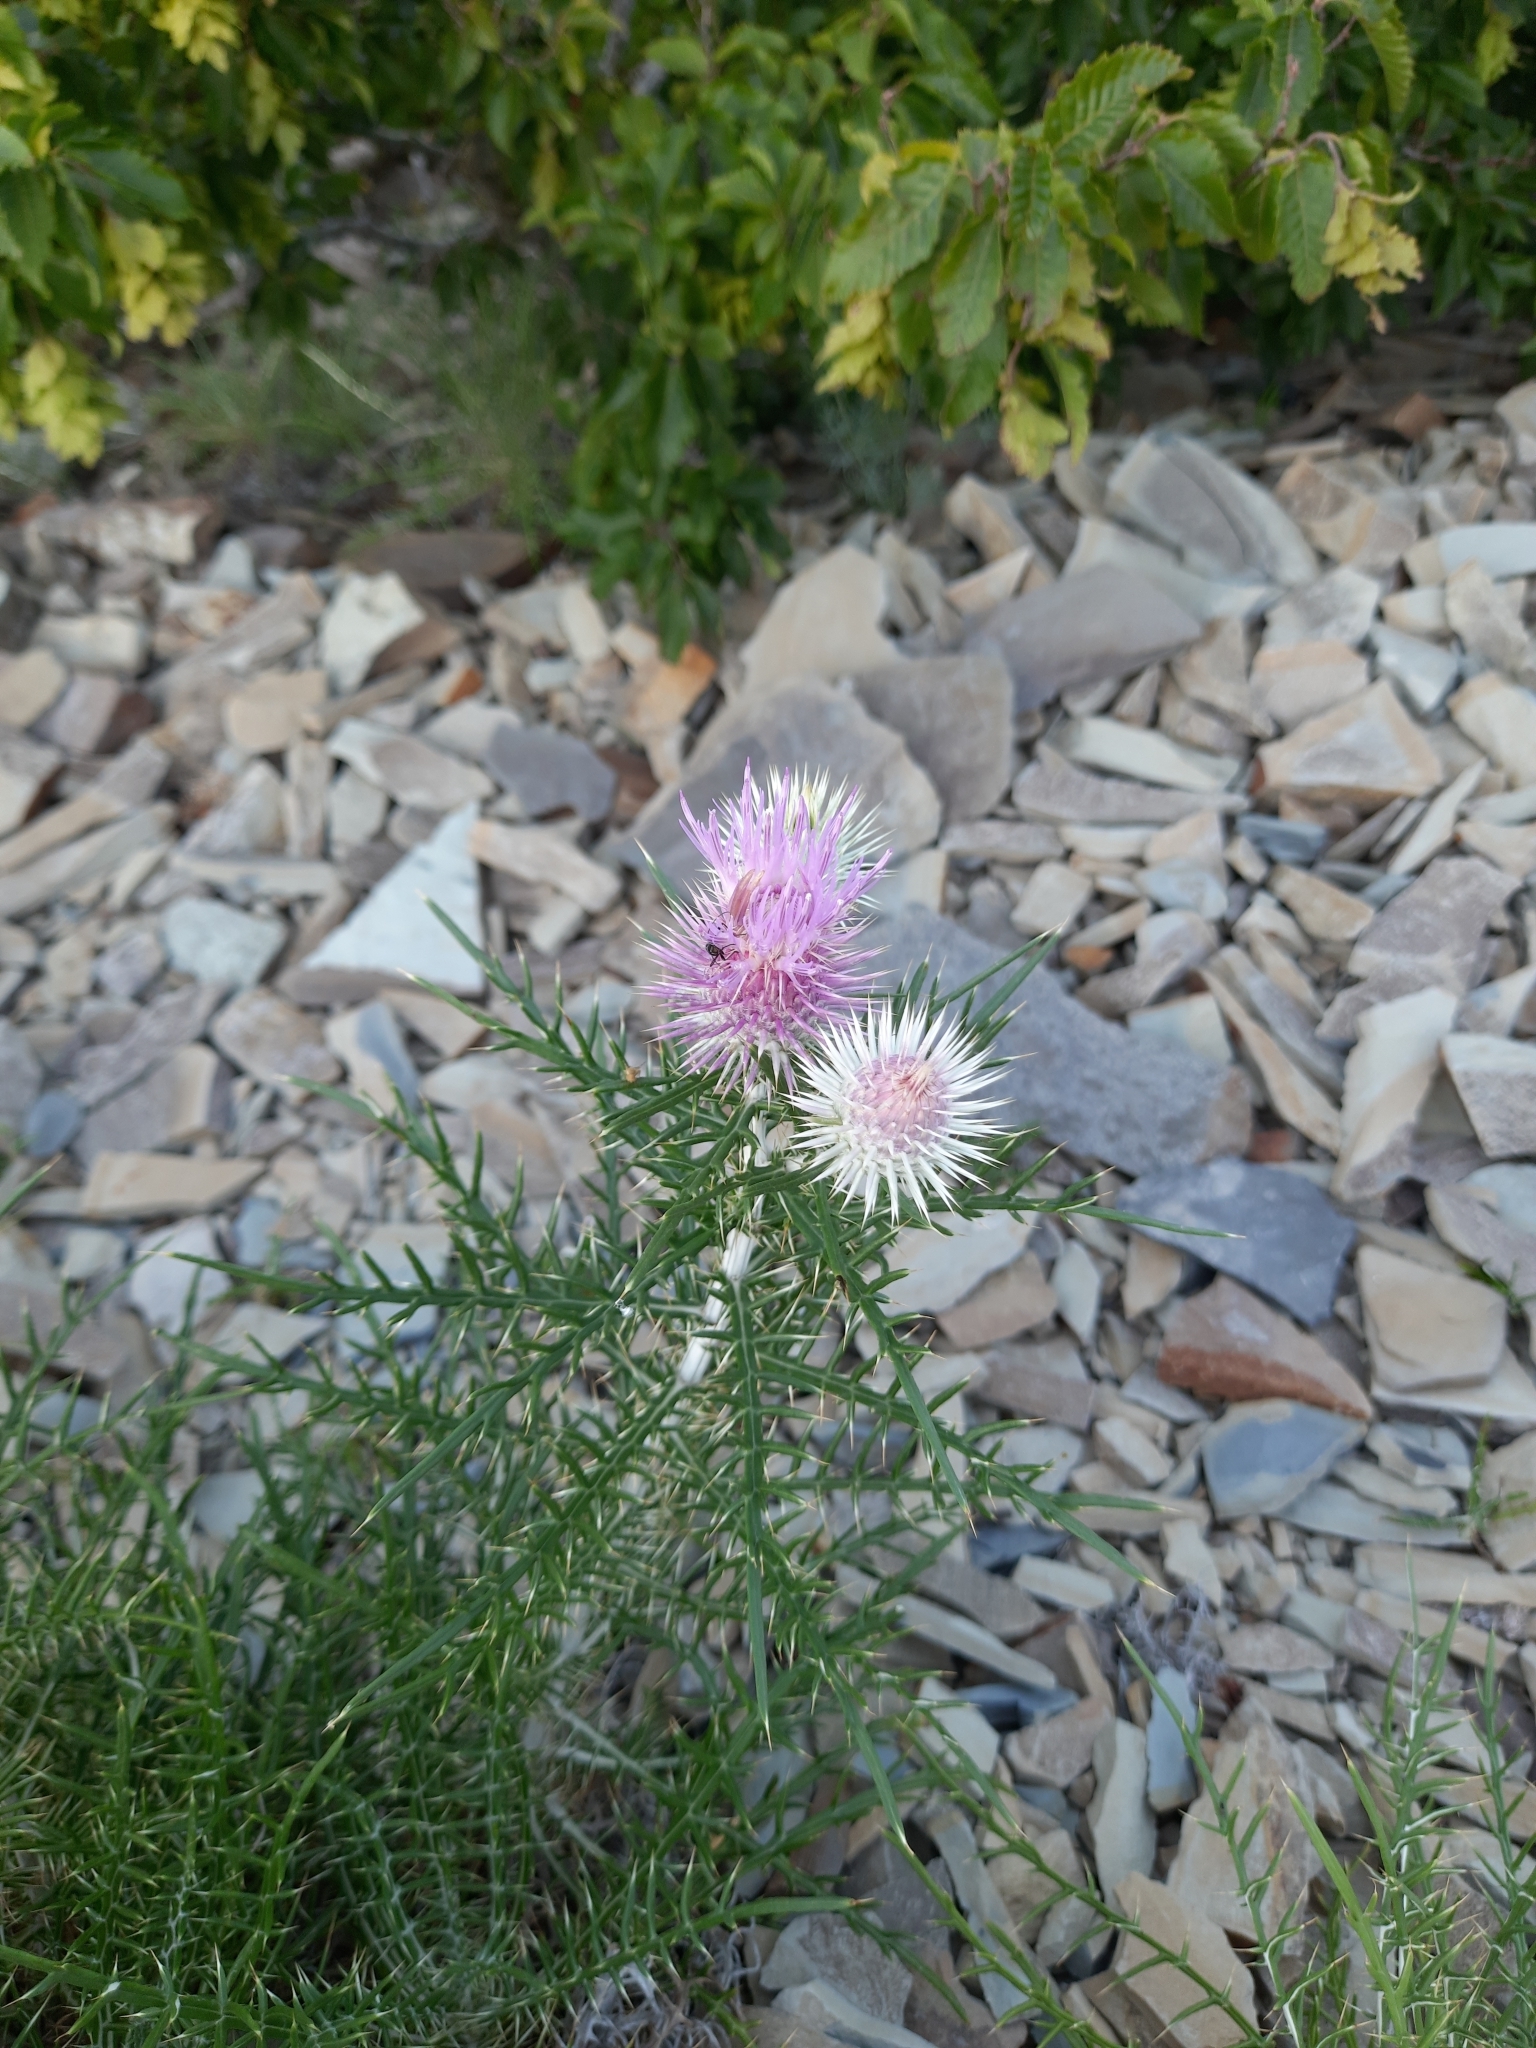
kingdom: Plantae
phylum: Tracheophyta
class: Magnoliopsida
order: Asterales
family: Asteraceae
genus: Ptilostemon
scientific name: Ptilostemon echinocephalus
